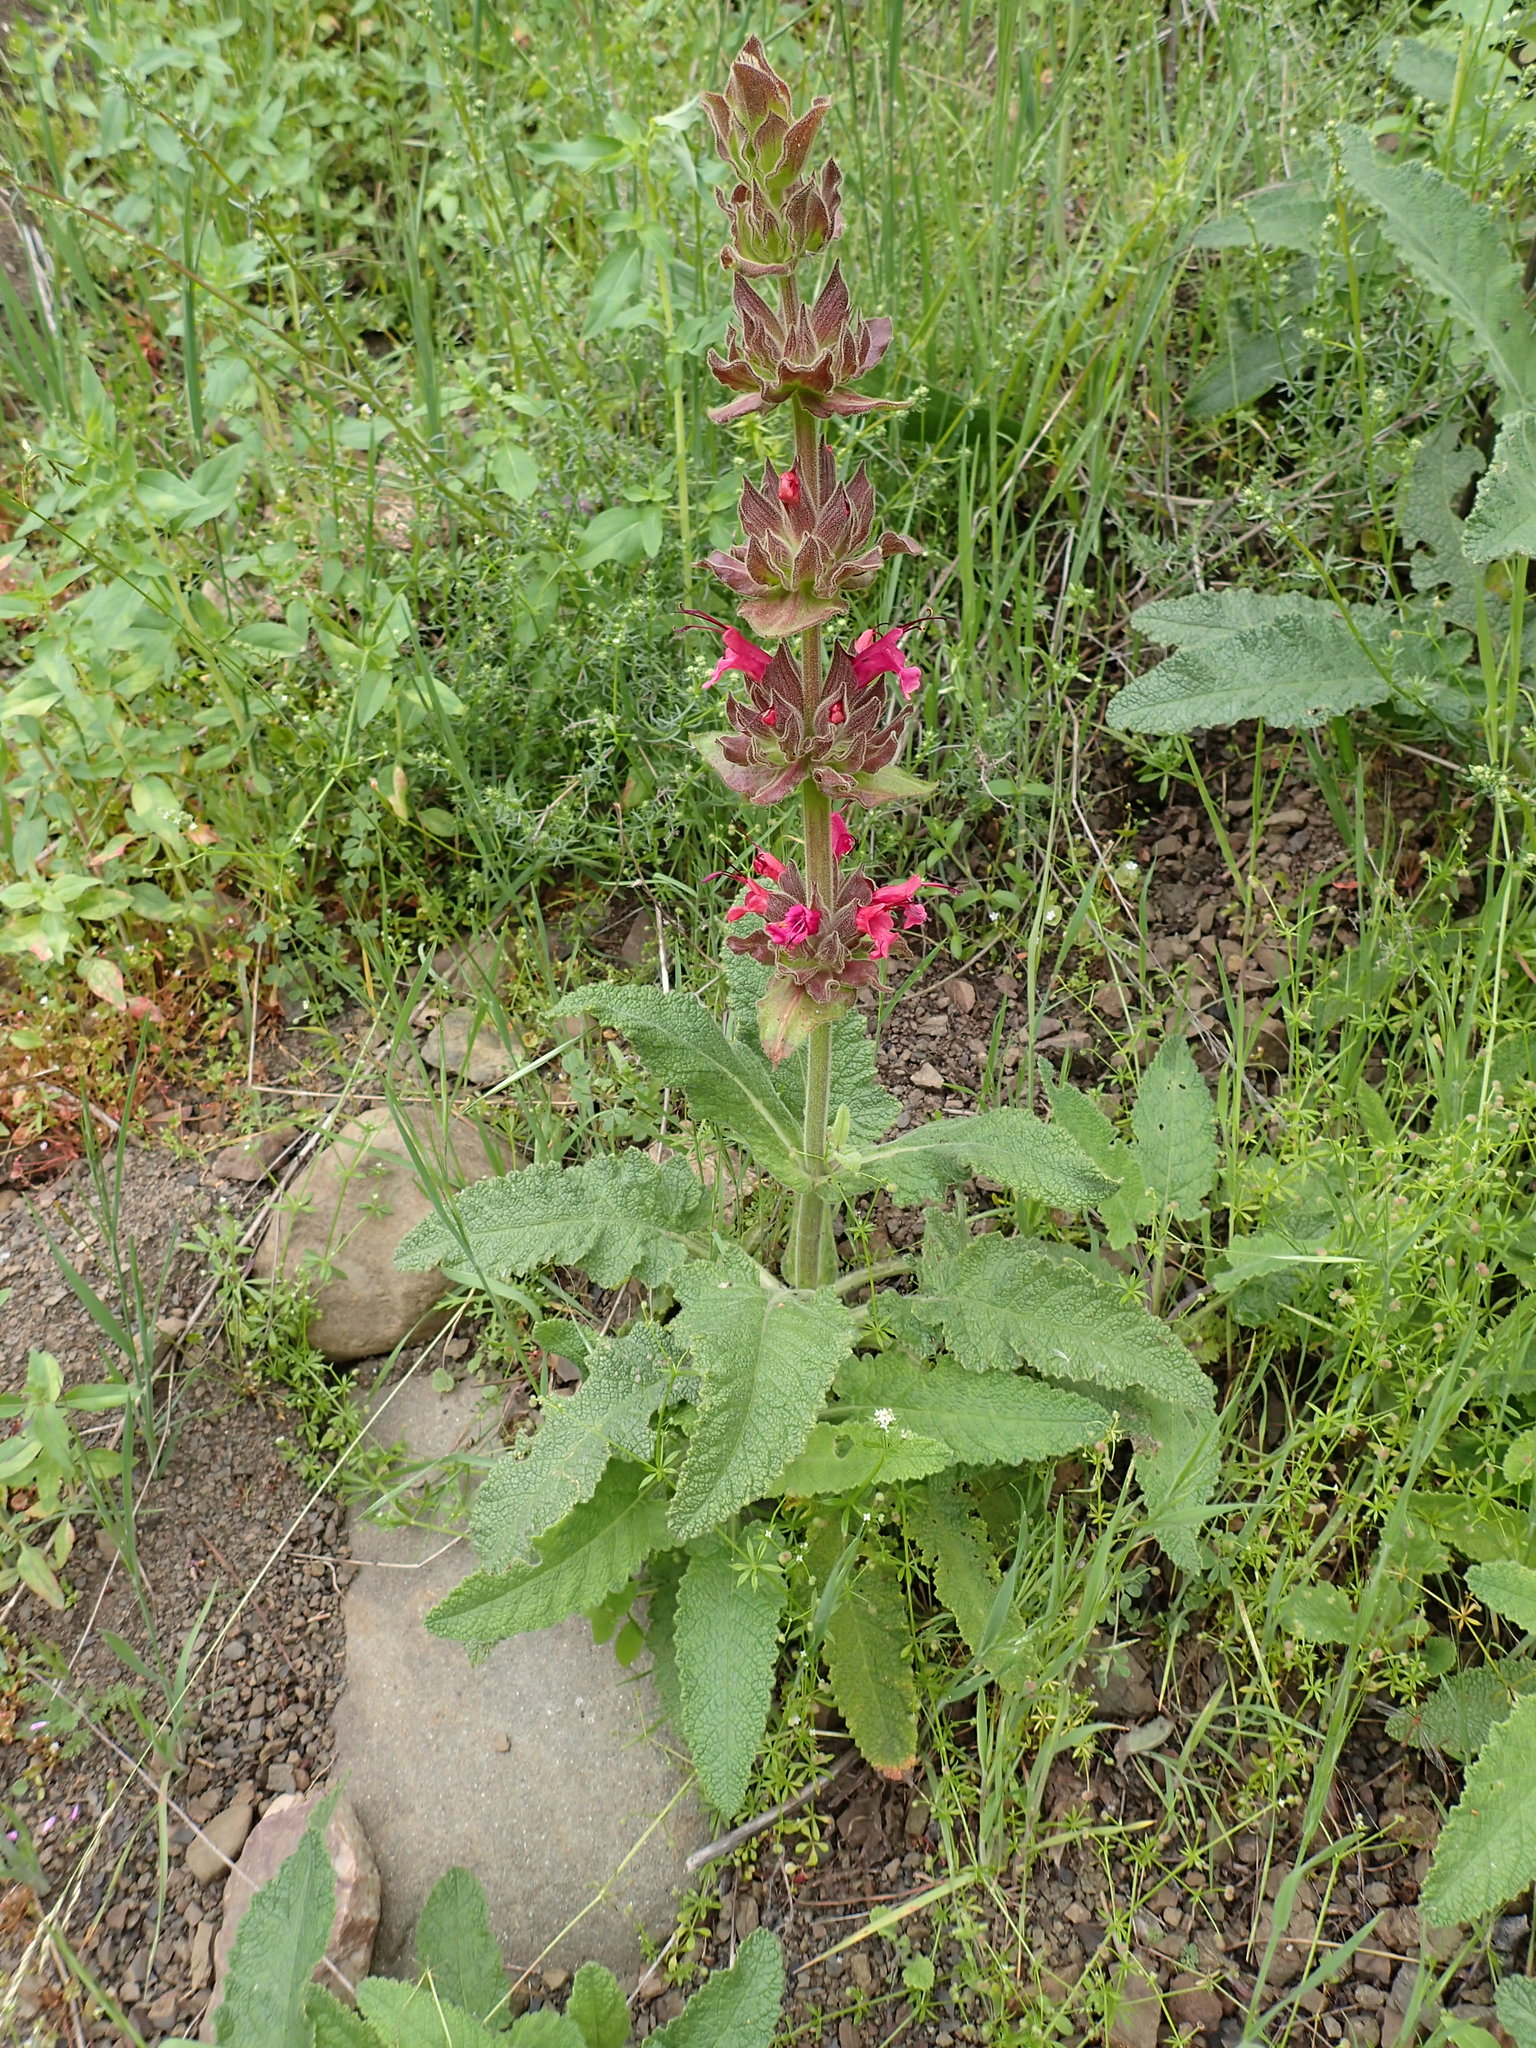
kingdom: Plantae
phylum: Tracheophyta
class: Magnoliopsida
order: Lamiales
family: Lamiaceae
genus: Salvia
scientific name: Salvia spathacea
